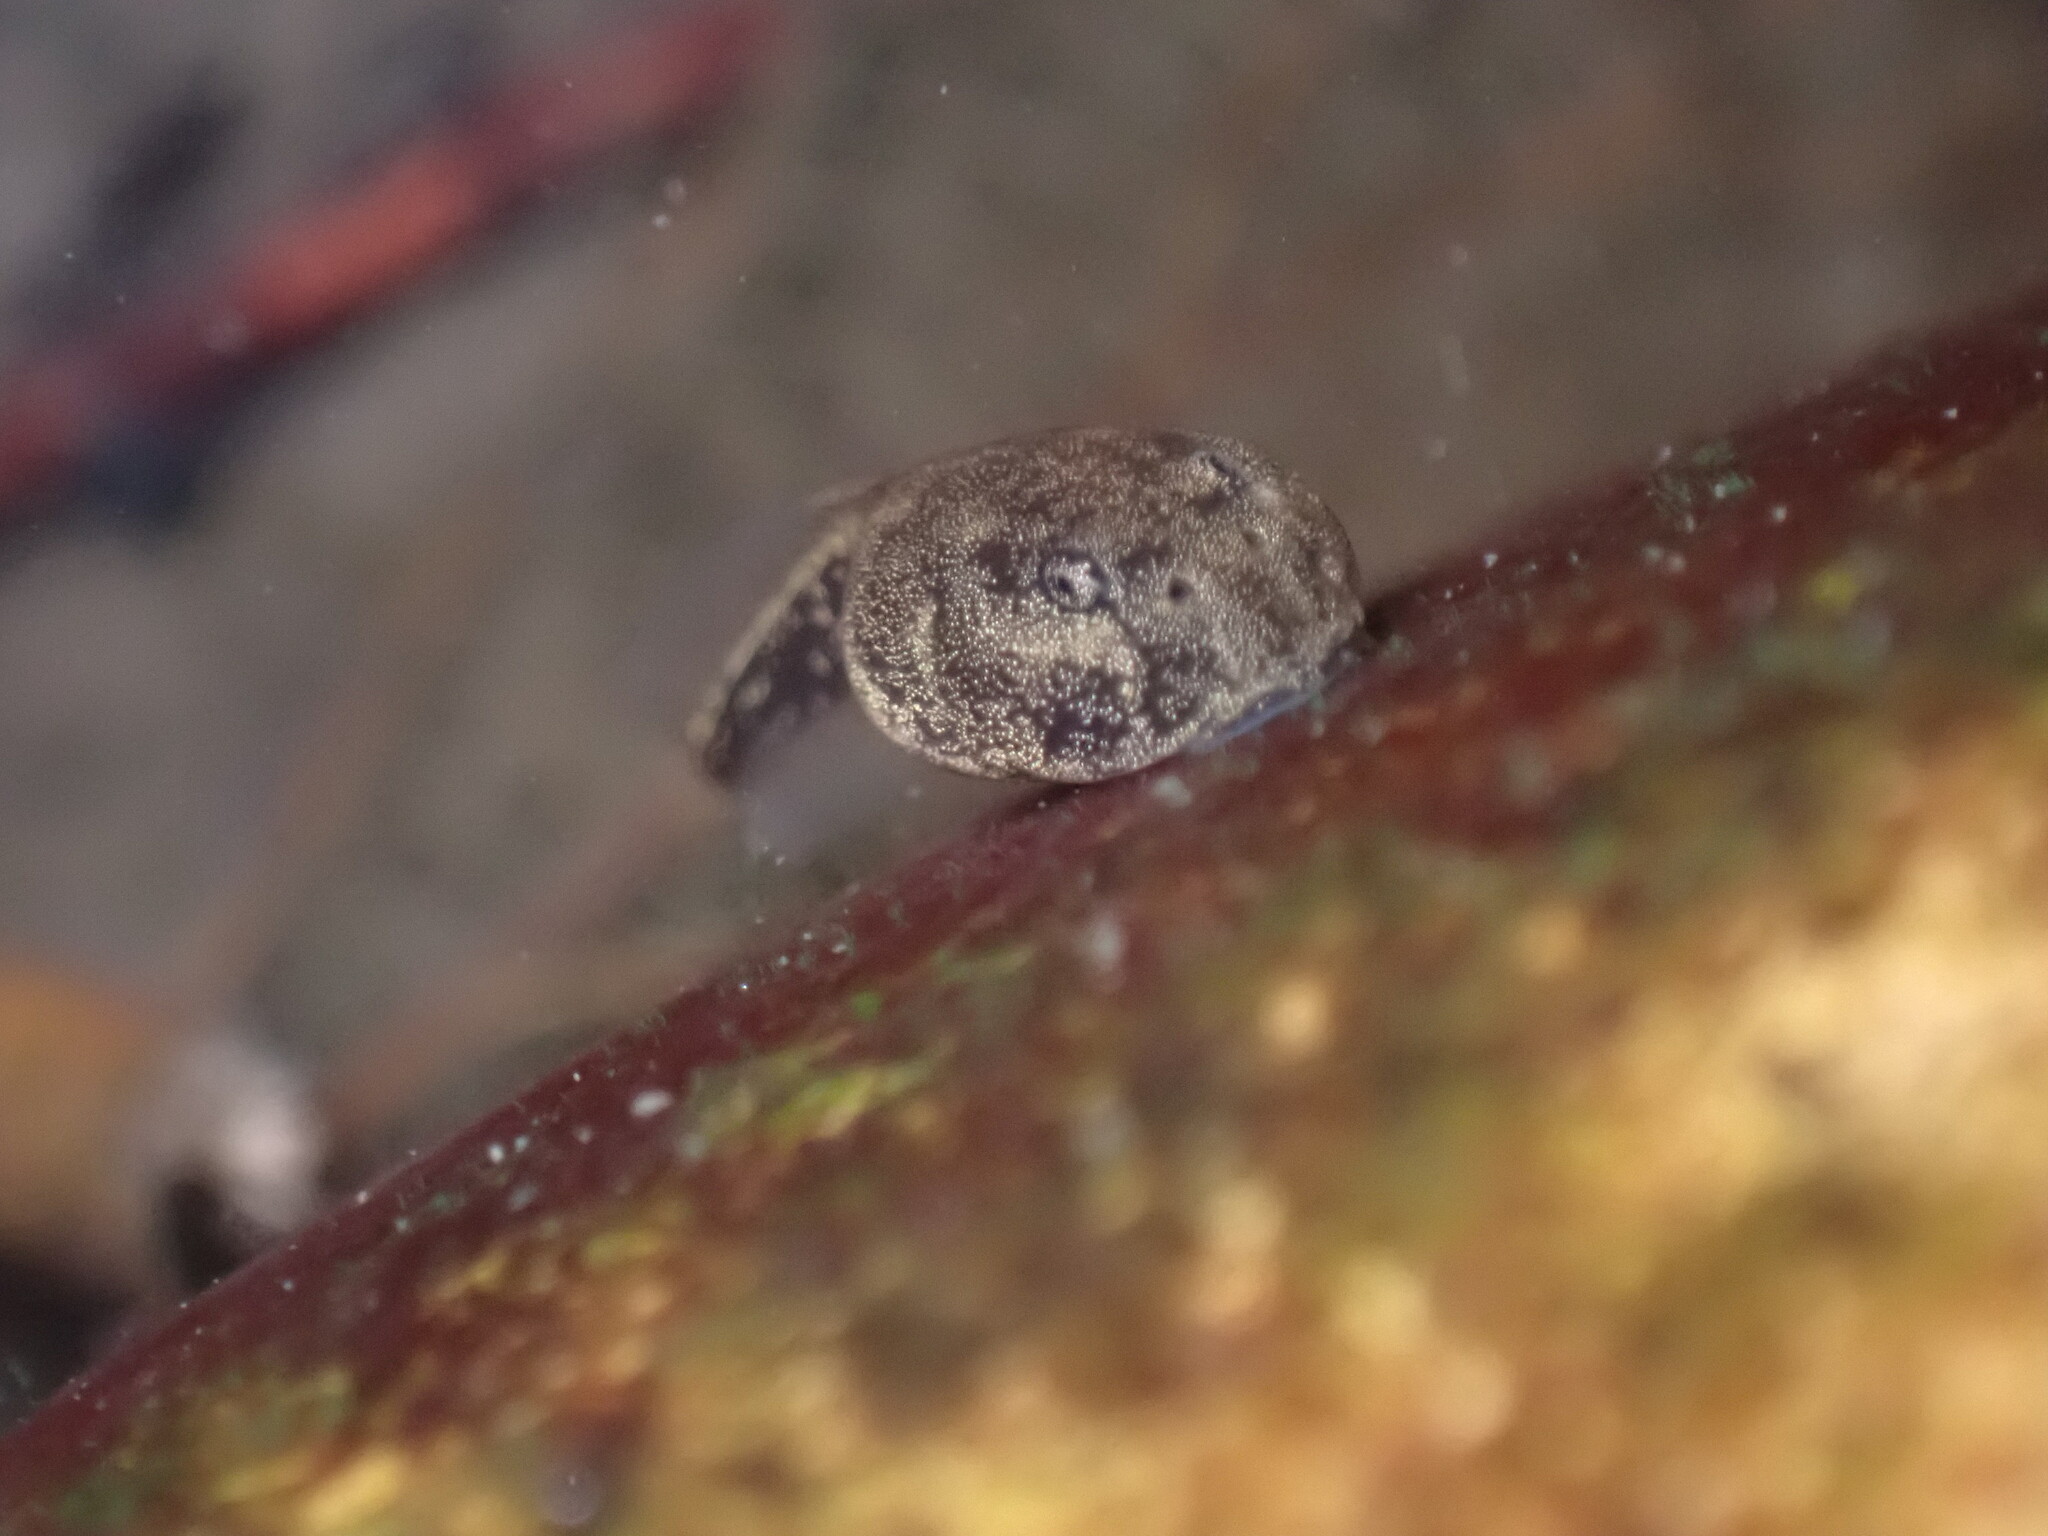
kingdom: Animalia
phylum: Chordata
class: Amphibia
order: Anura
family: Bufonidae
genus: Duttaphrynus
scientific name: Duttaphrynus melanostictus
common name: Common sunda toad
